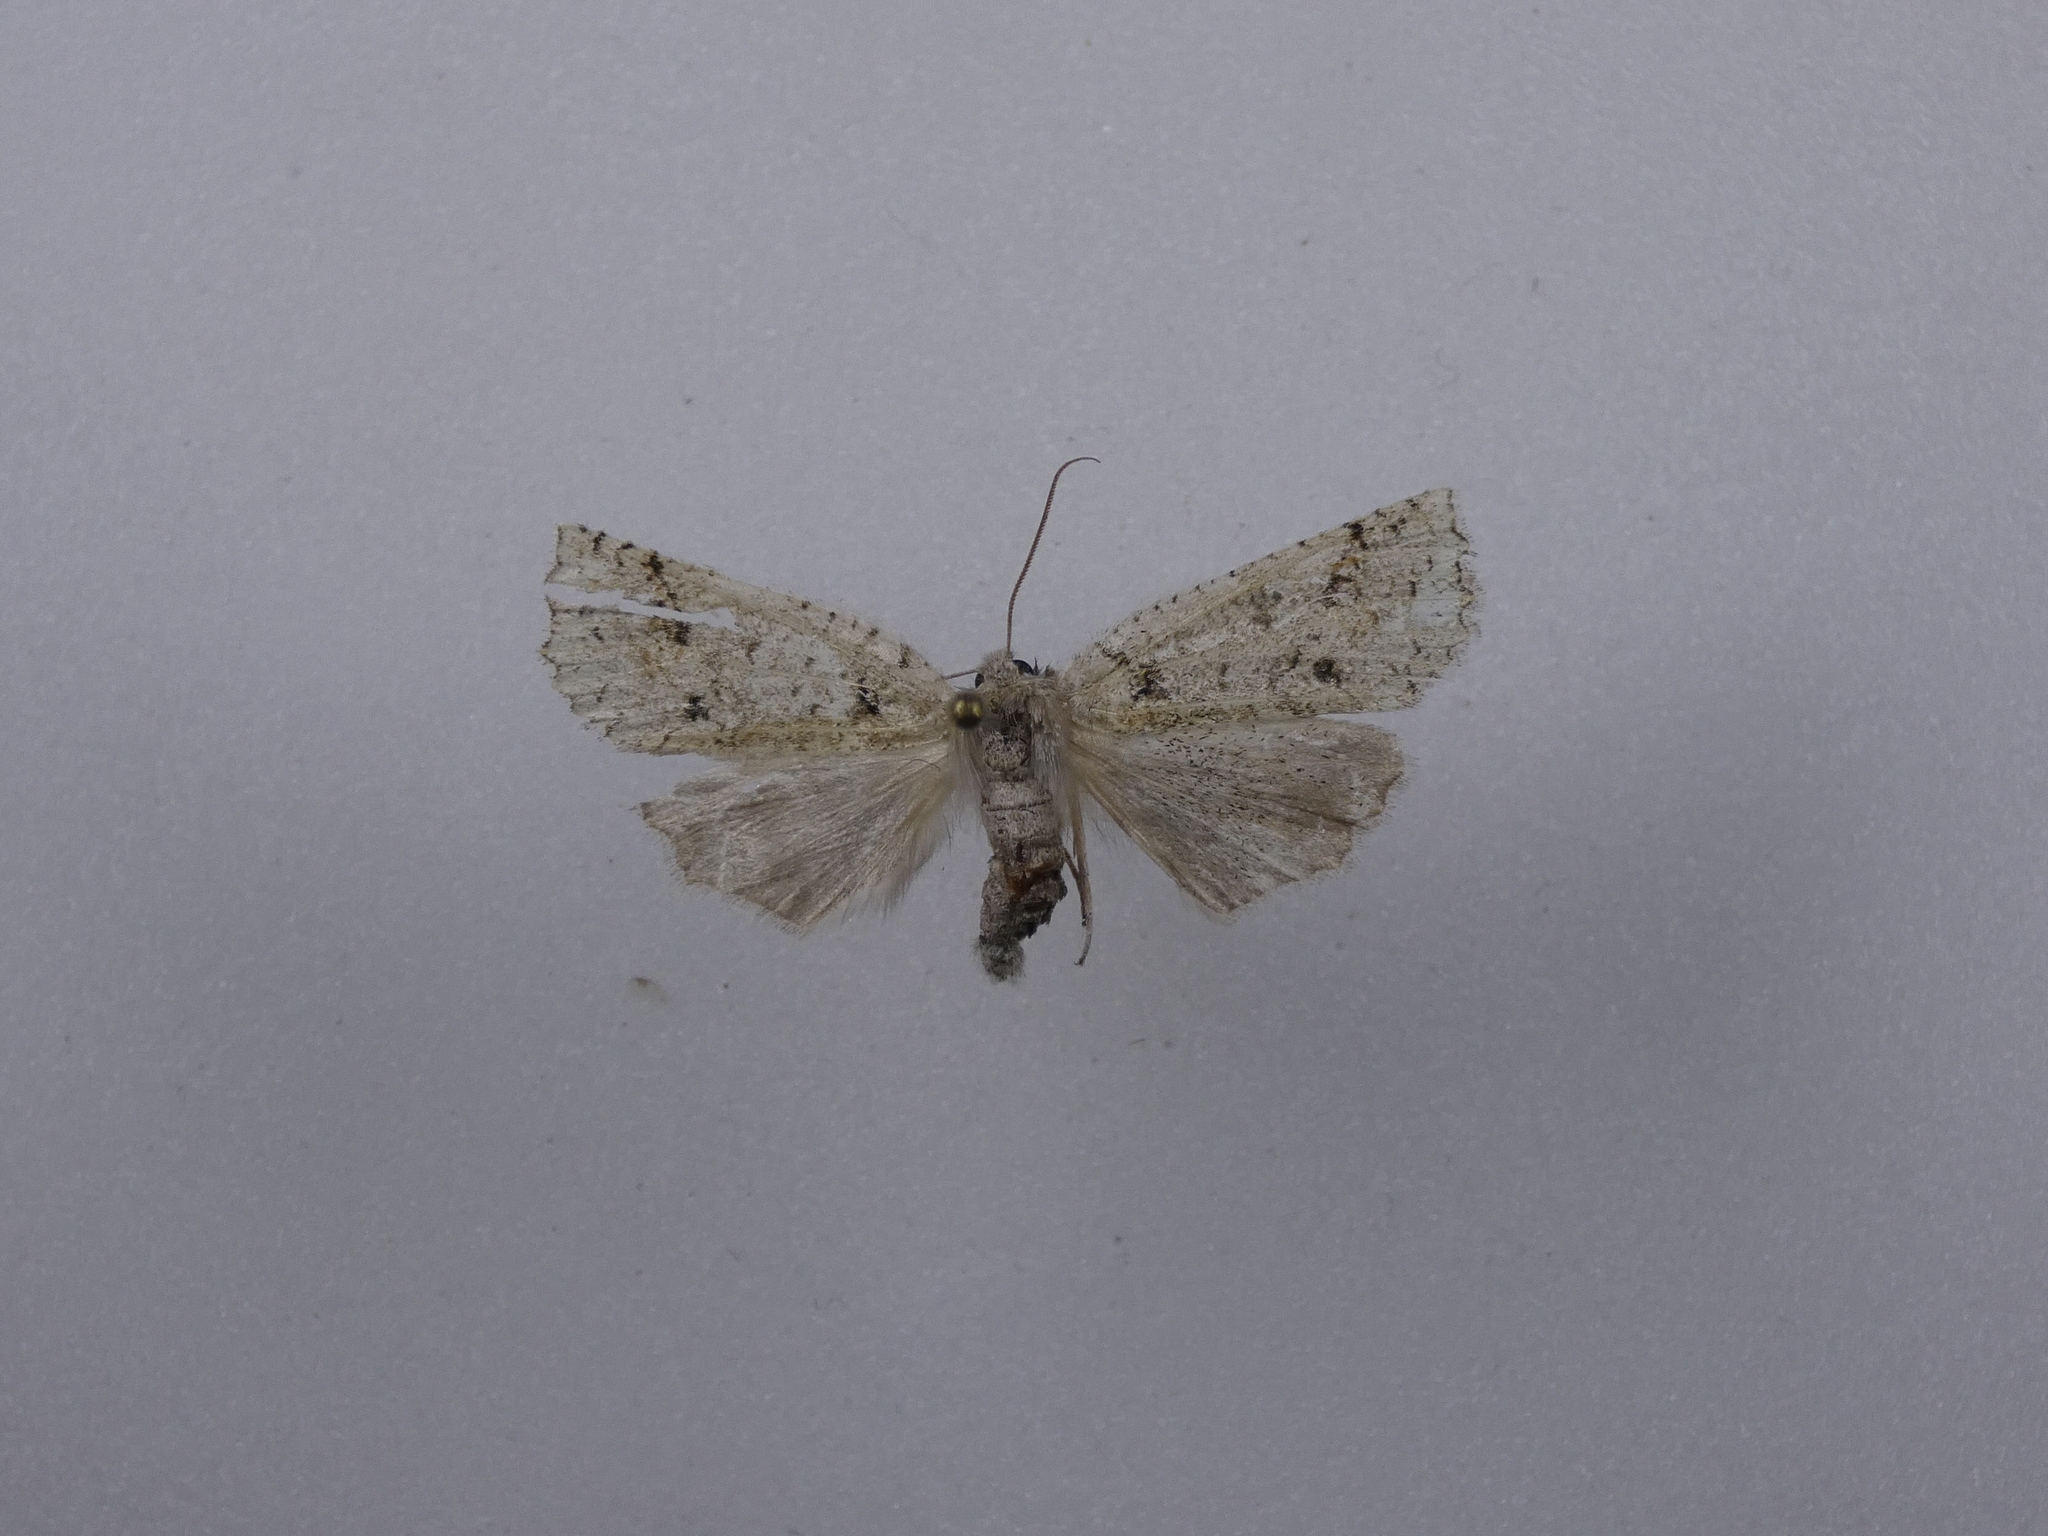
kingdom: Animalia
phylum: Arthropoda
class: Insecta
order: Lepidoptera
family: Geometridae
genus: Declana
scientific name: Declana floccosa
